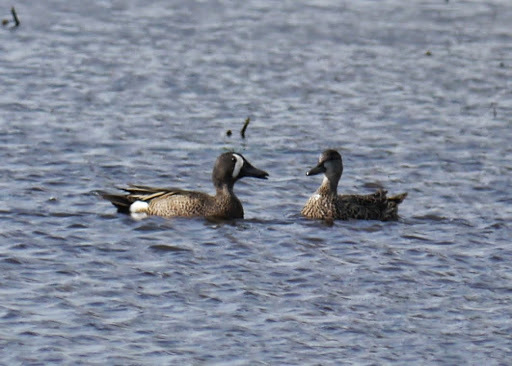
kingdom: Animalia
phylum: Chordata
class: Aves
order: Anseriformes
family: Anatidae
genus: Spatula
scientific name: Spatula discors
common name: Blue-winged teal
